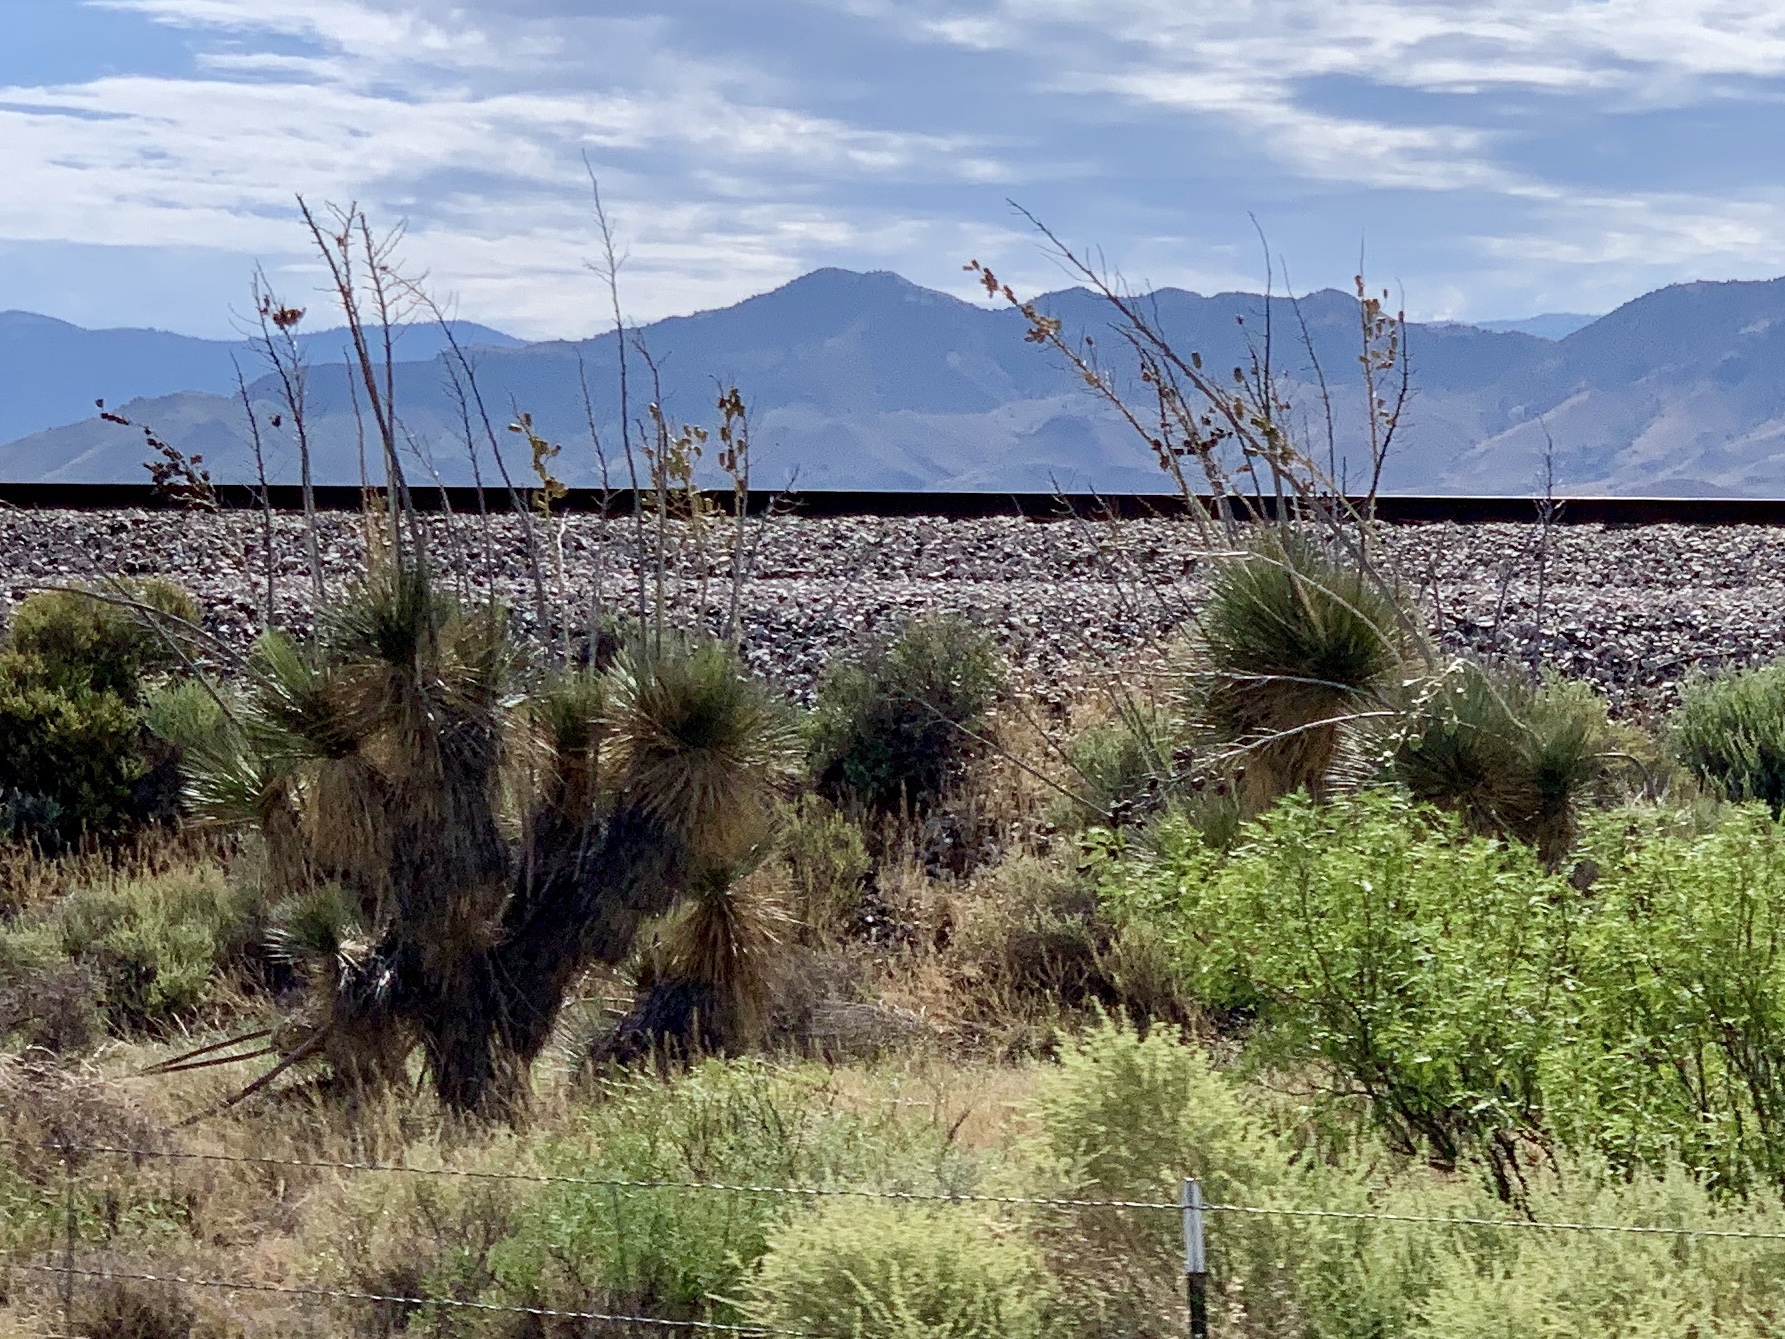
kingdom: Plantae
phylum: Tracheophyta
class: Liliopsida
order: Asparagales
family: Asparagaceae
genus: Yucca
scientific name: Yucca elata
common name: Palmella
